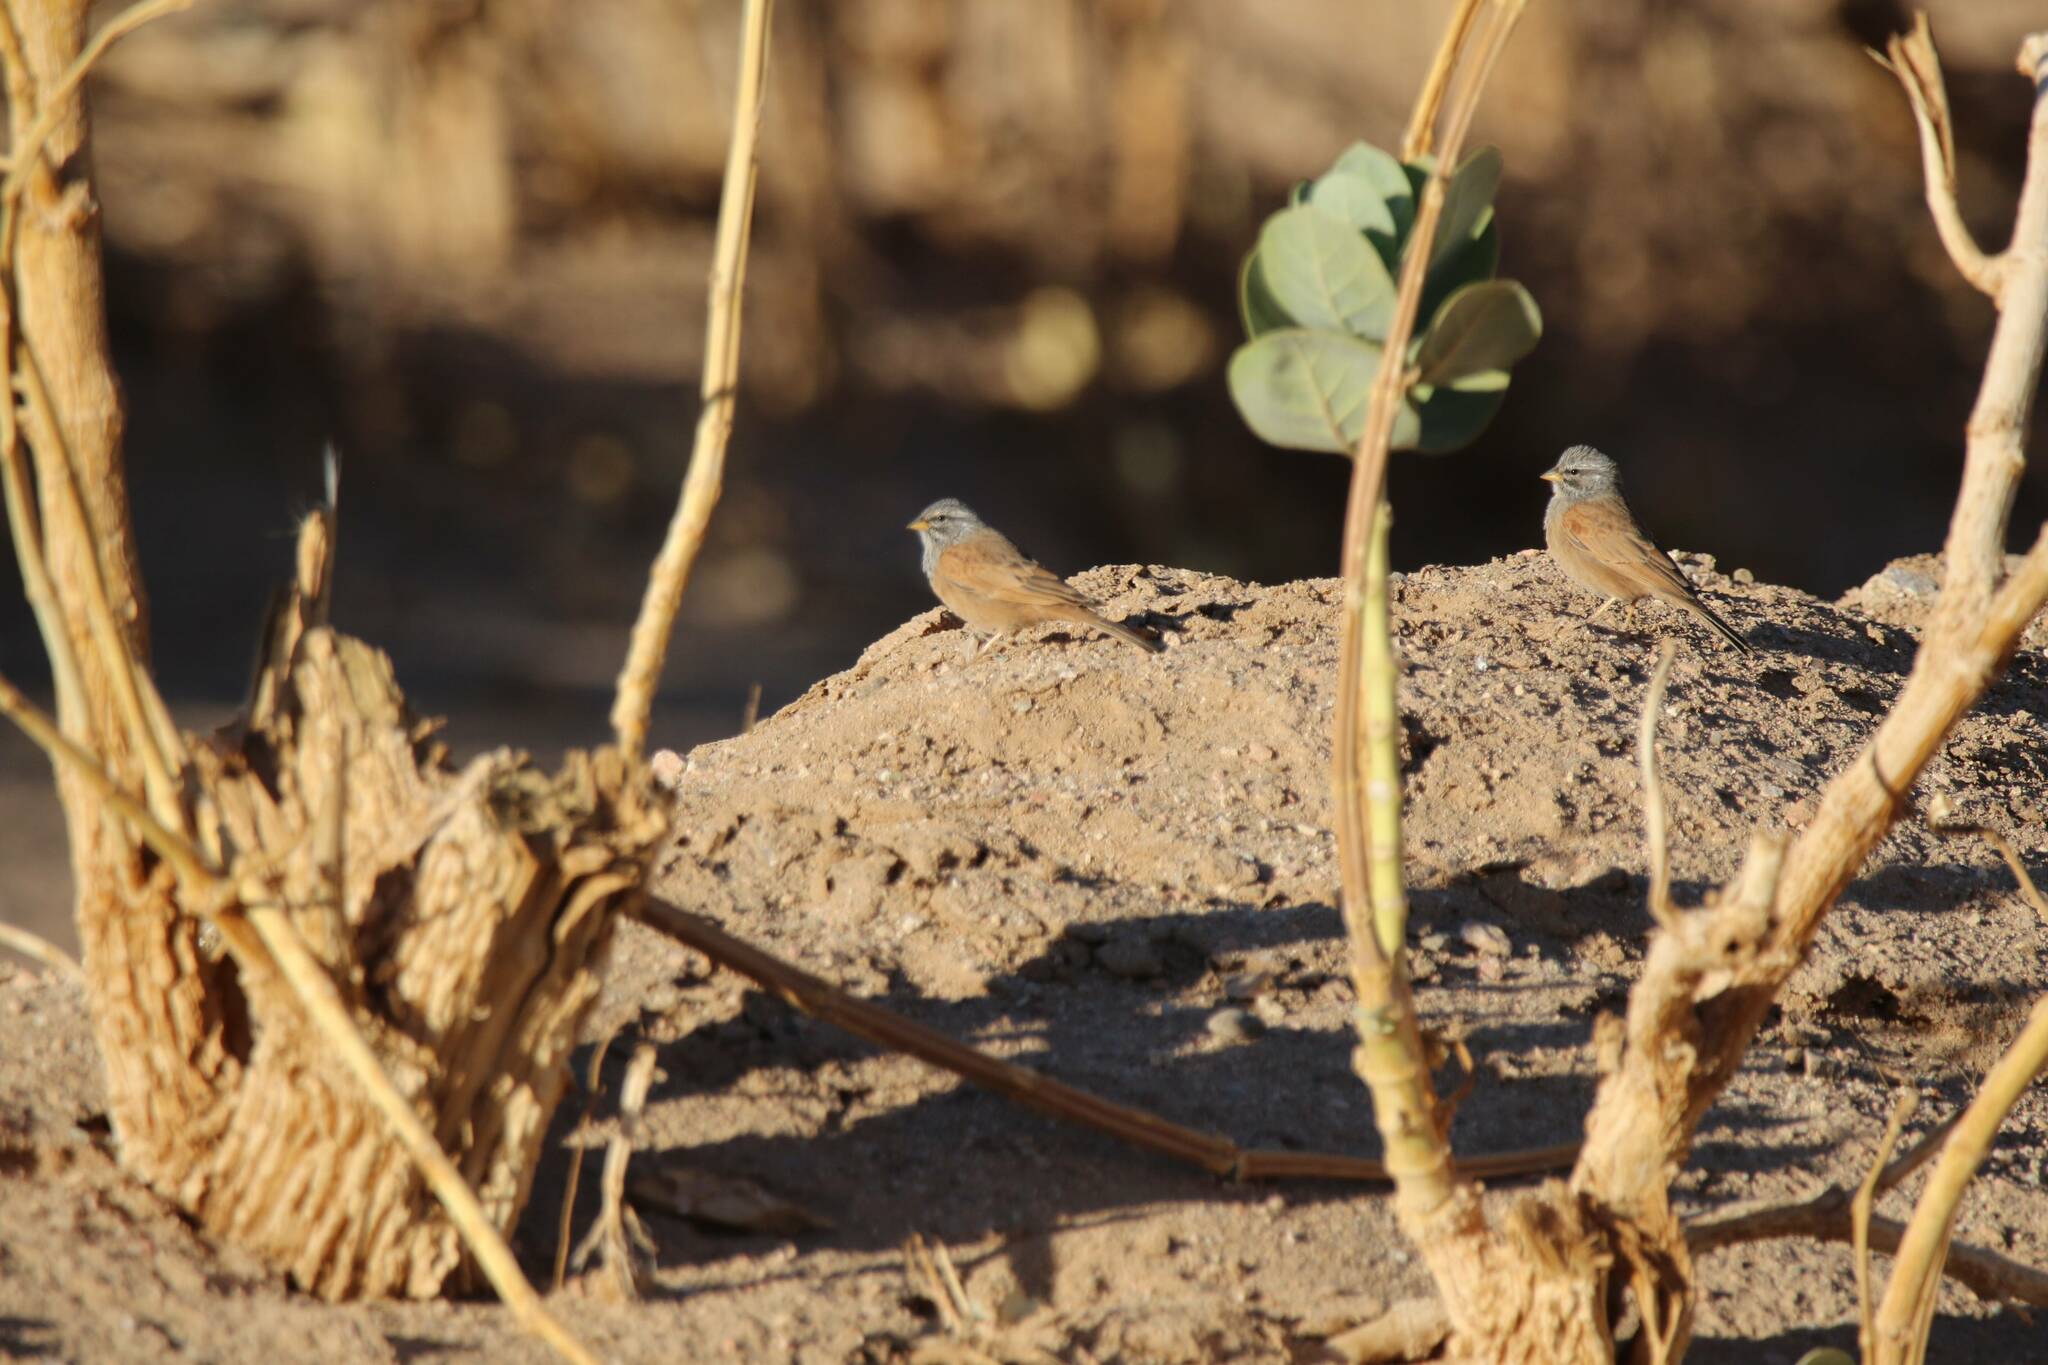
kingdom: Animalia
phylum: Chordata
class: Aves
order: Passeriformes
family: Emberizidae
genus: Emberiza
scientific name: Emberiza sahari
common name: House bunting
